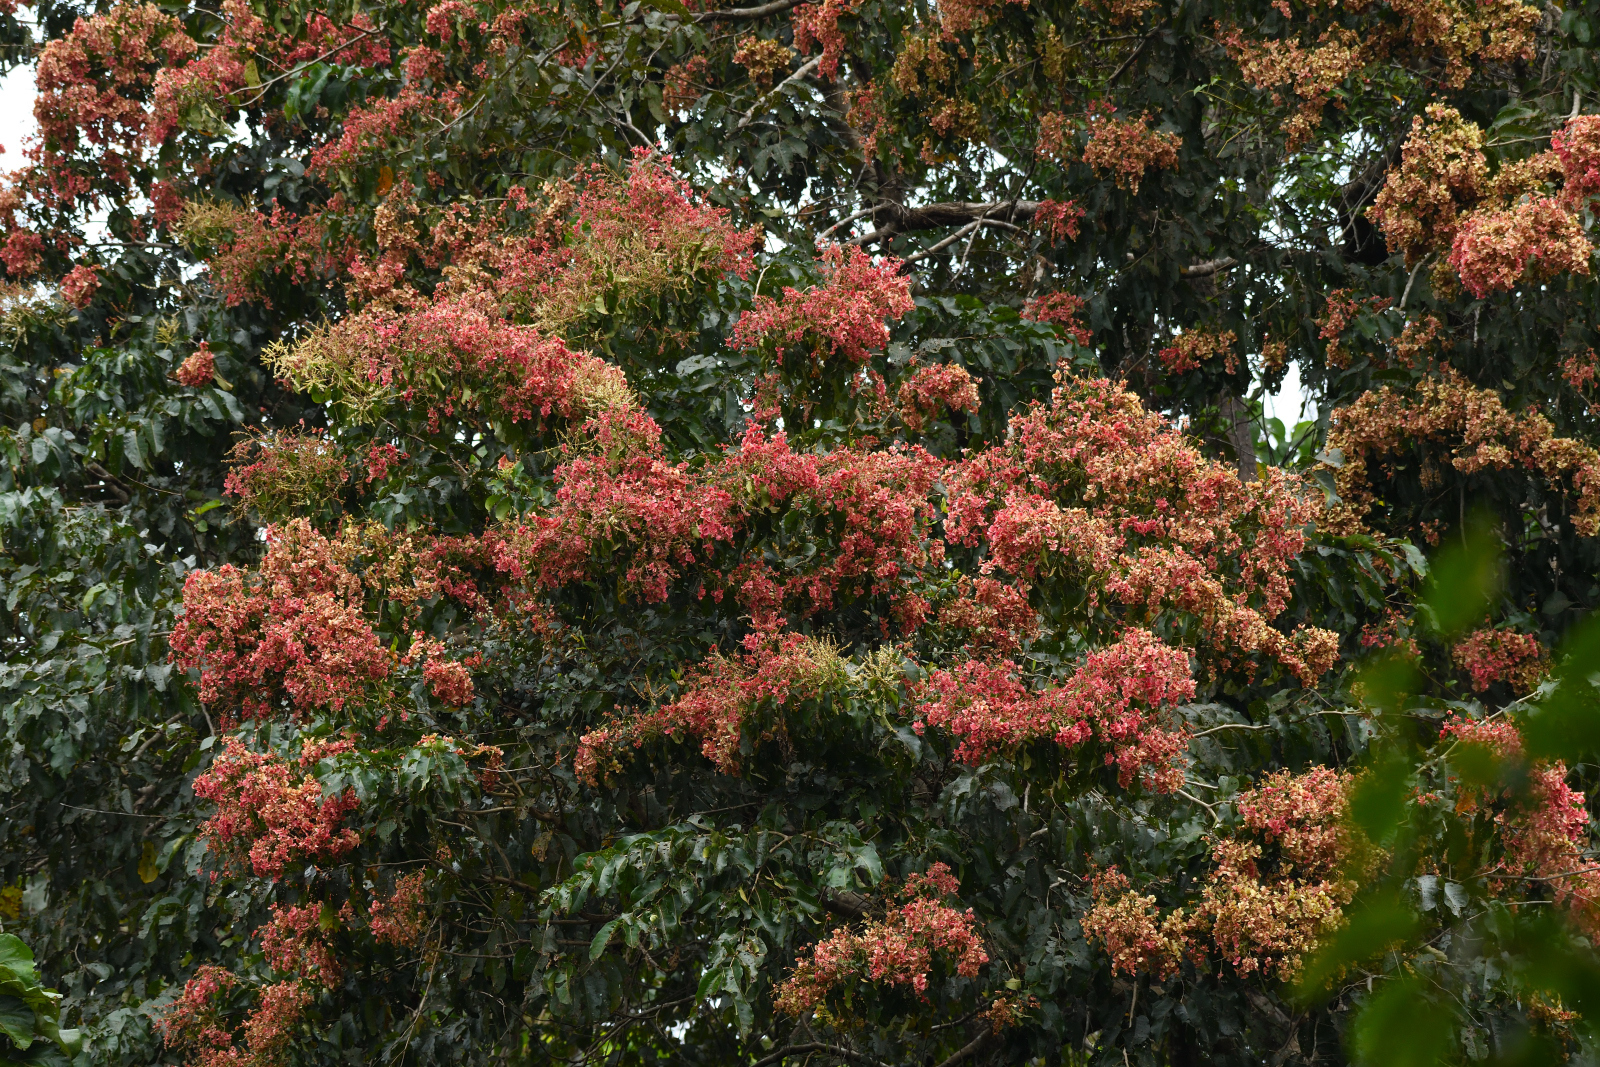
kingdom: Plantae
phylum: Tracheophyta
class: Magnoliopsida
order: Myrtales
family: Combretaceae
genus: Terminalia
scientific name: Terminalia paniculata
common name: Flowering murdah
